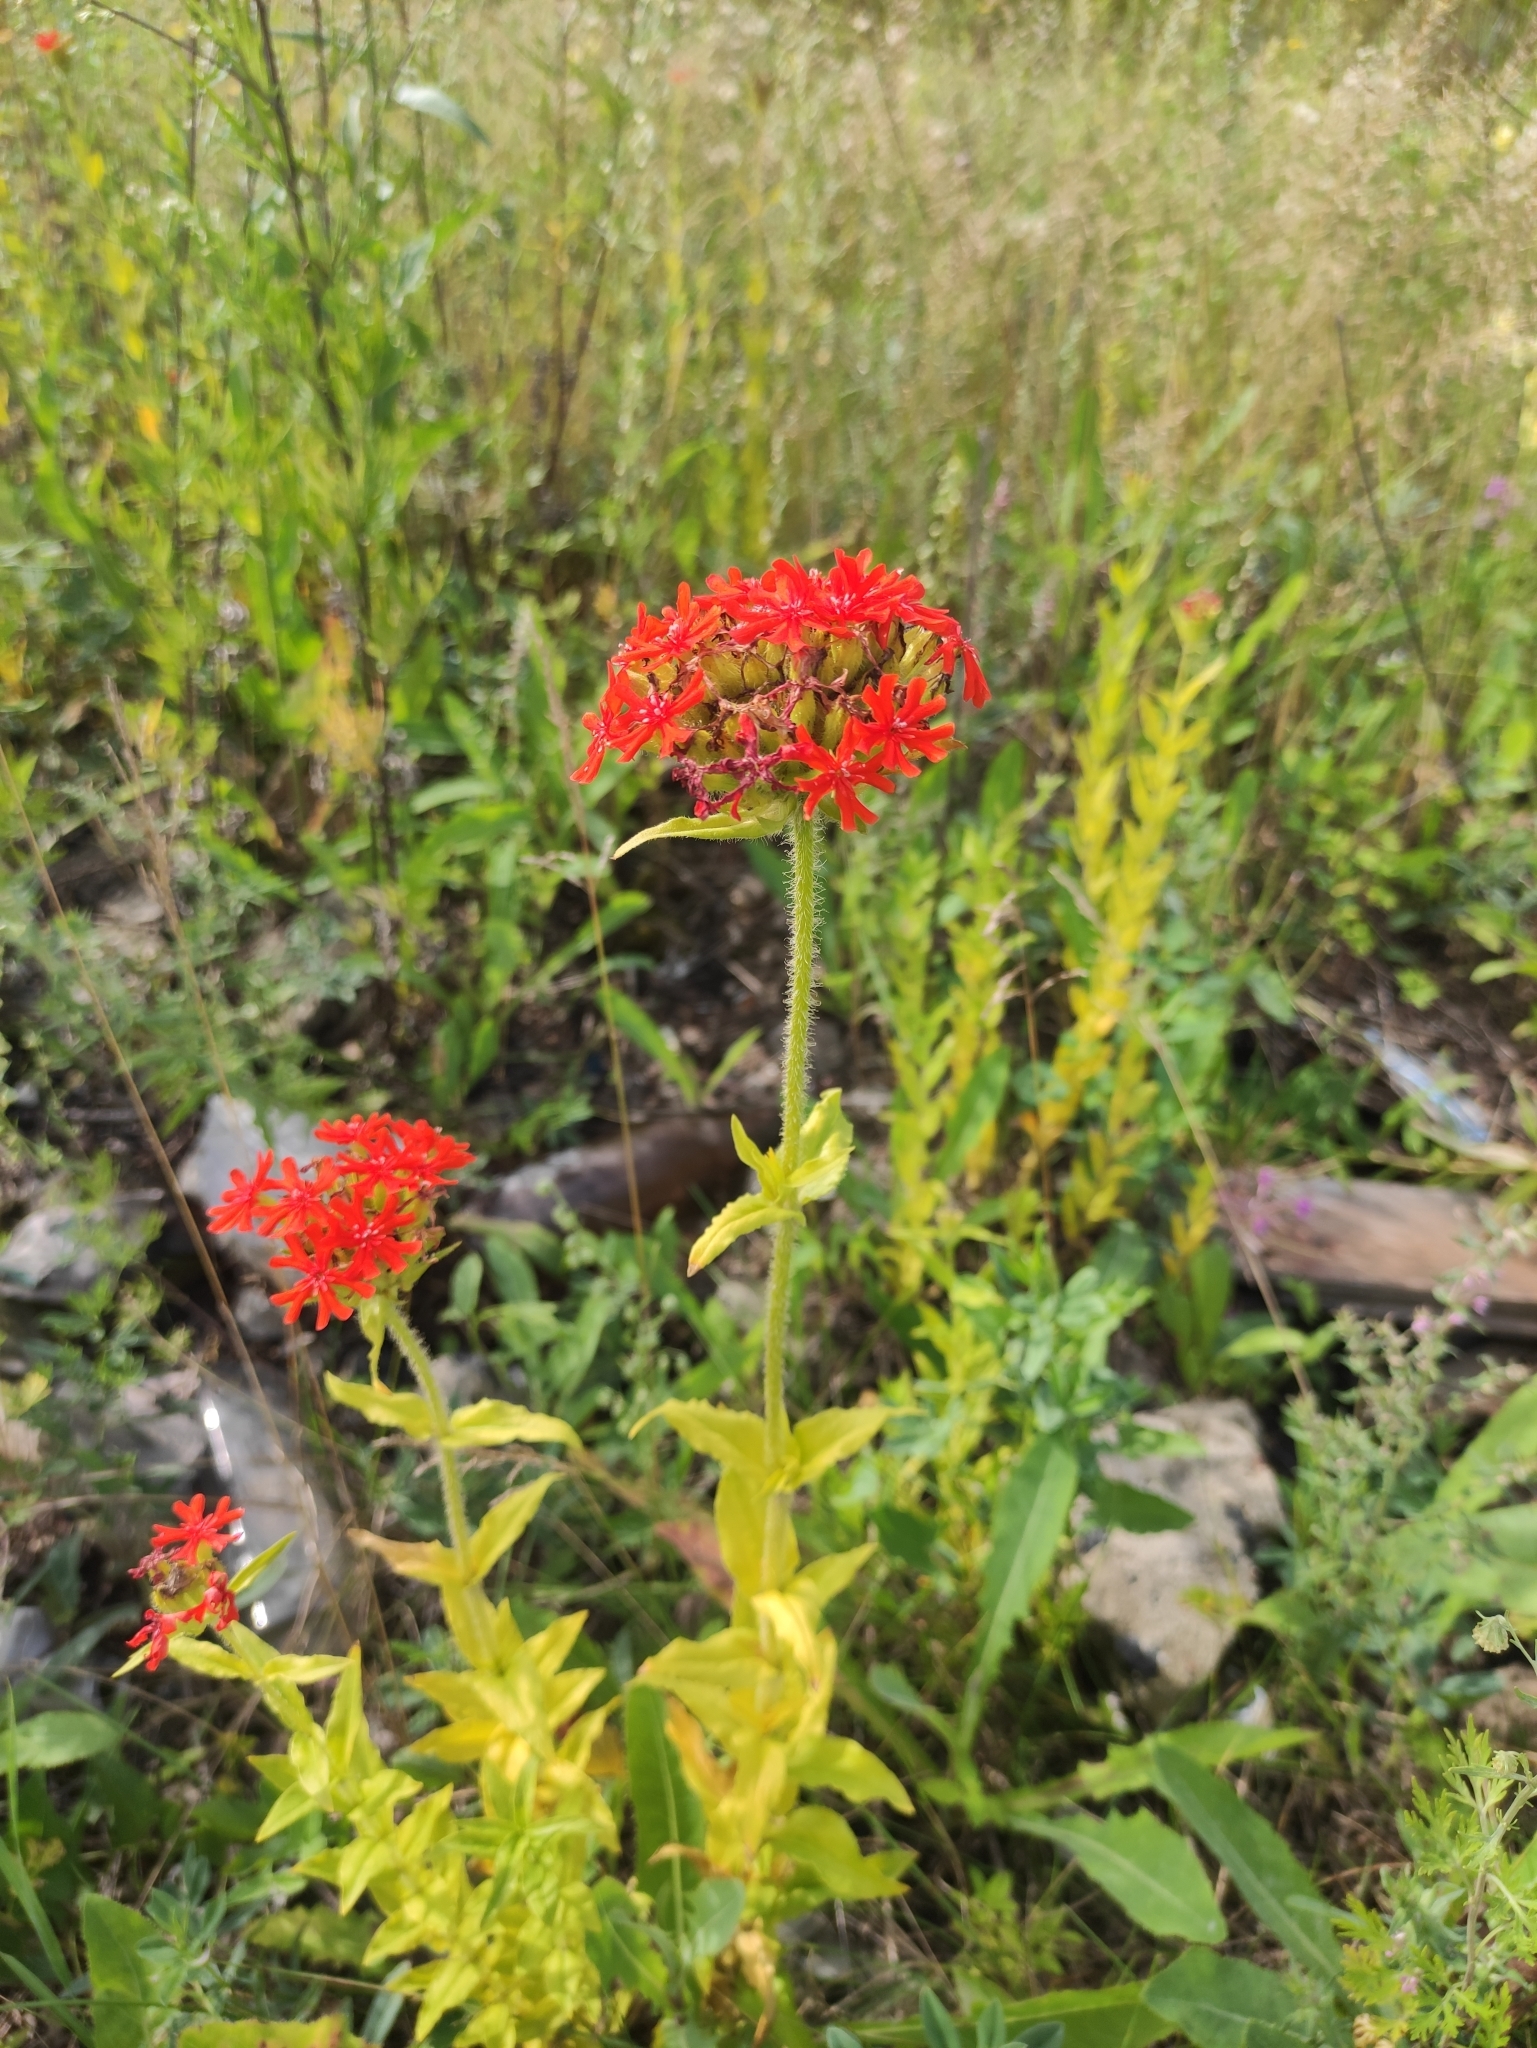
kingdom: Plantae
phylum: Tracheophyta
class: Magnoliopsida
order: Caryophyllales
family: Caryophyllaceae
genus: Silene
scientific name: Silene chalcedonica
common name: Maltese-cross
